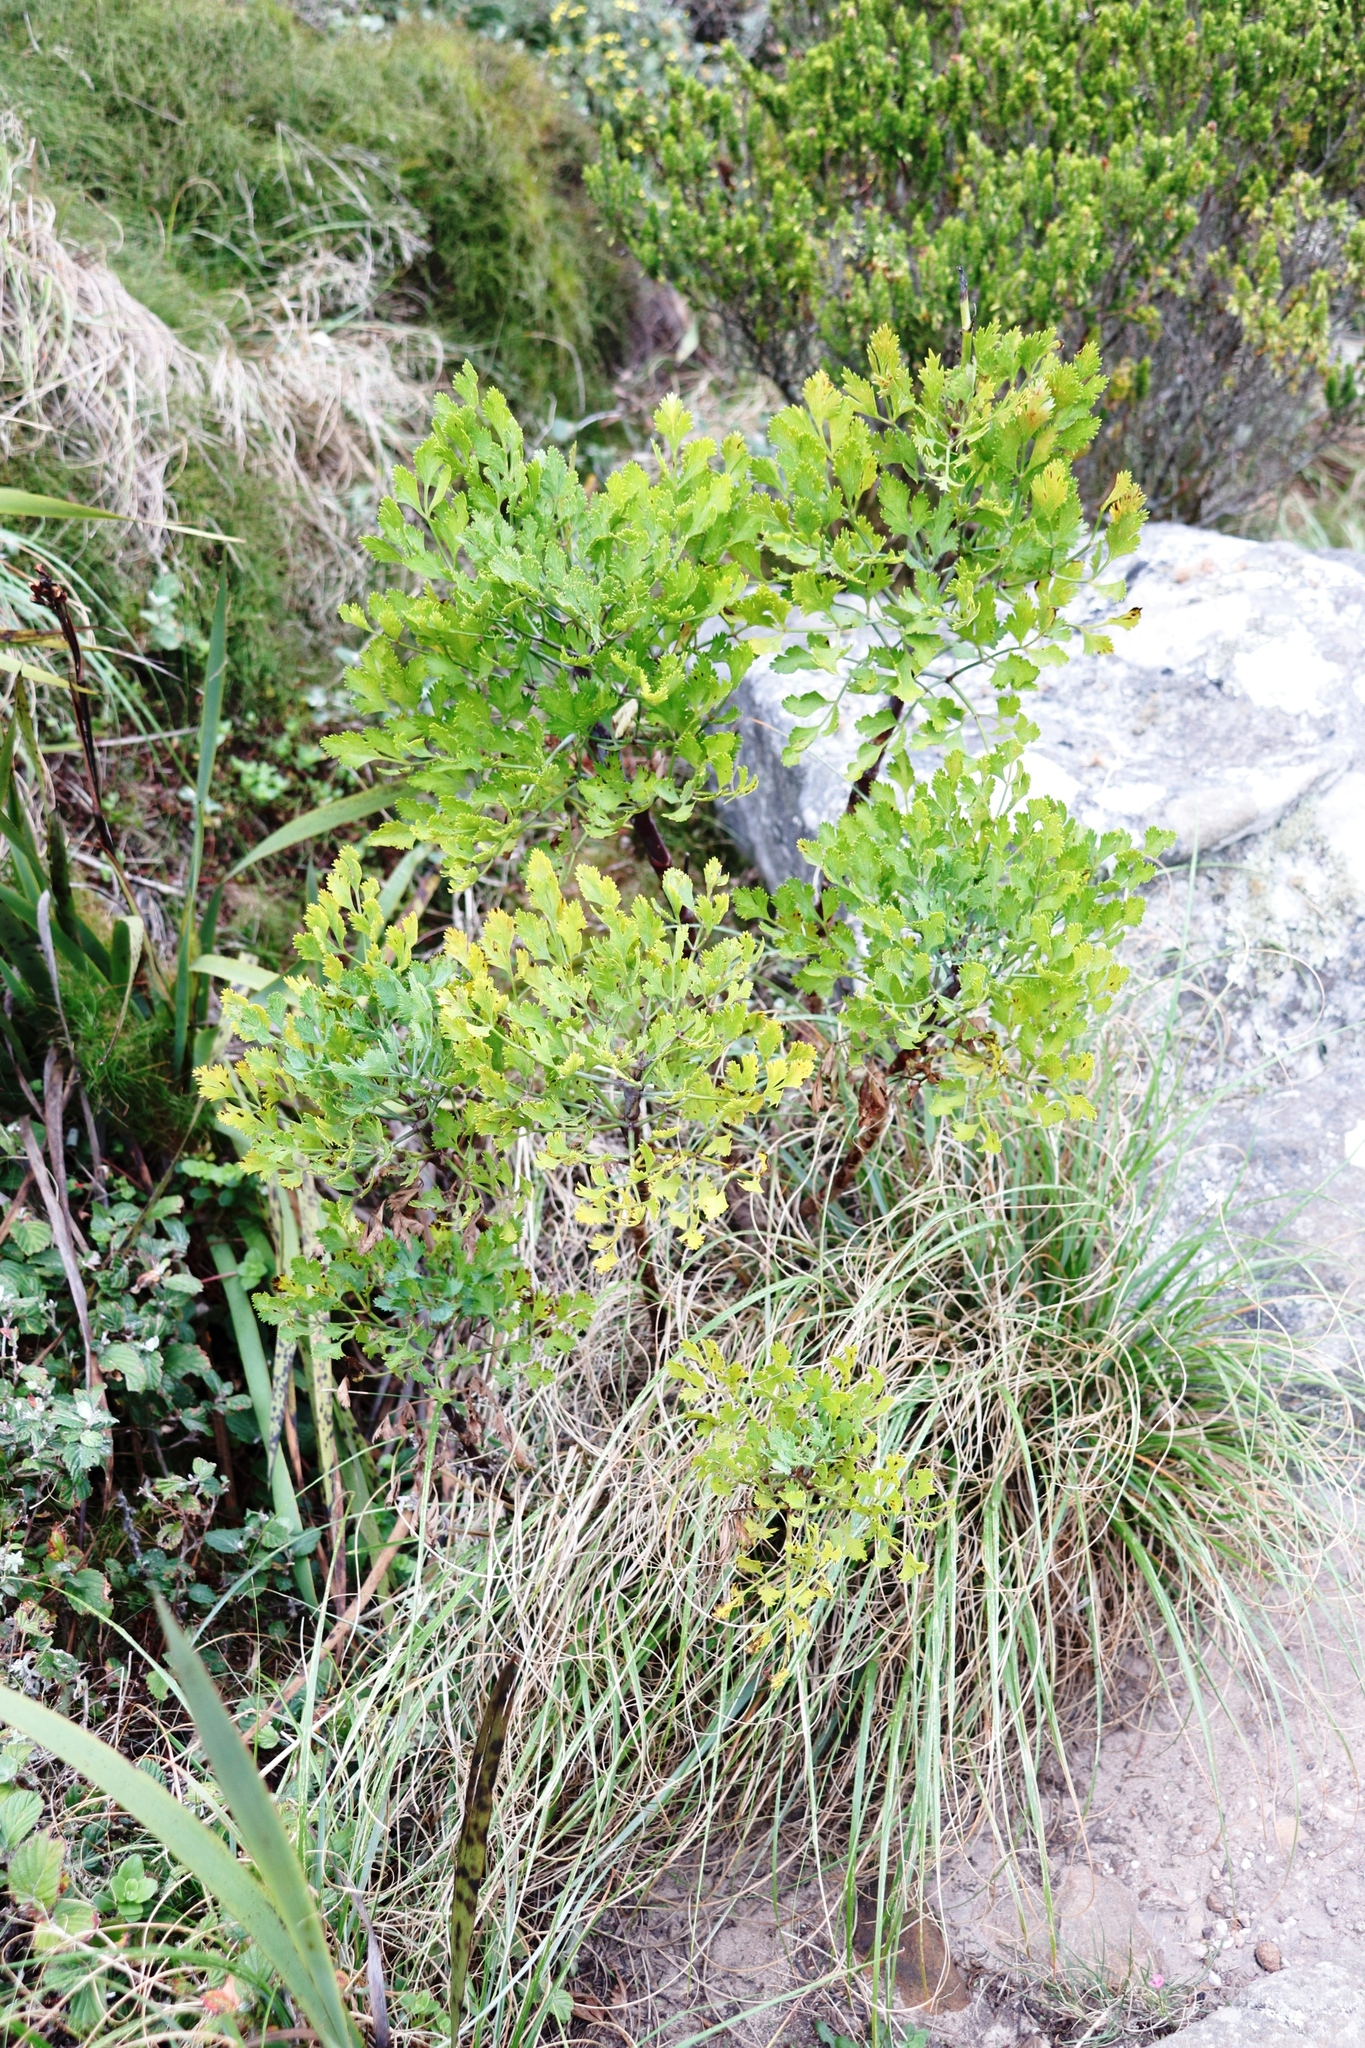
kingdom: Plantae
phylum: Tracheophyta
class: Magnoliopsida
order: Apiales
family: Apiaceae
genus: Notobubon
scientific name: Notobubon galbanum
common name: Blisterbush
